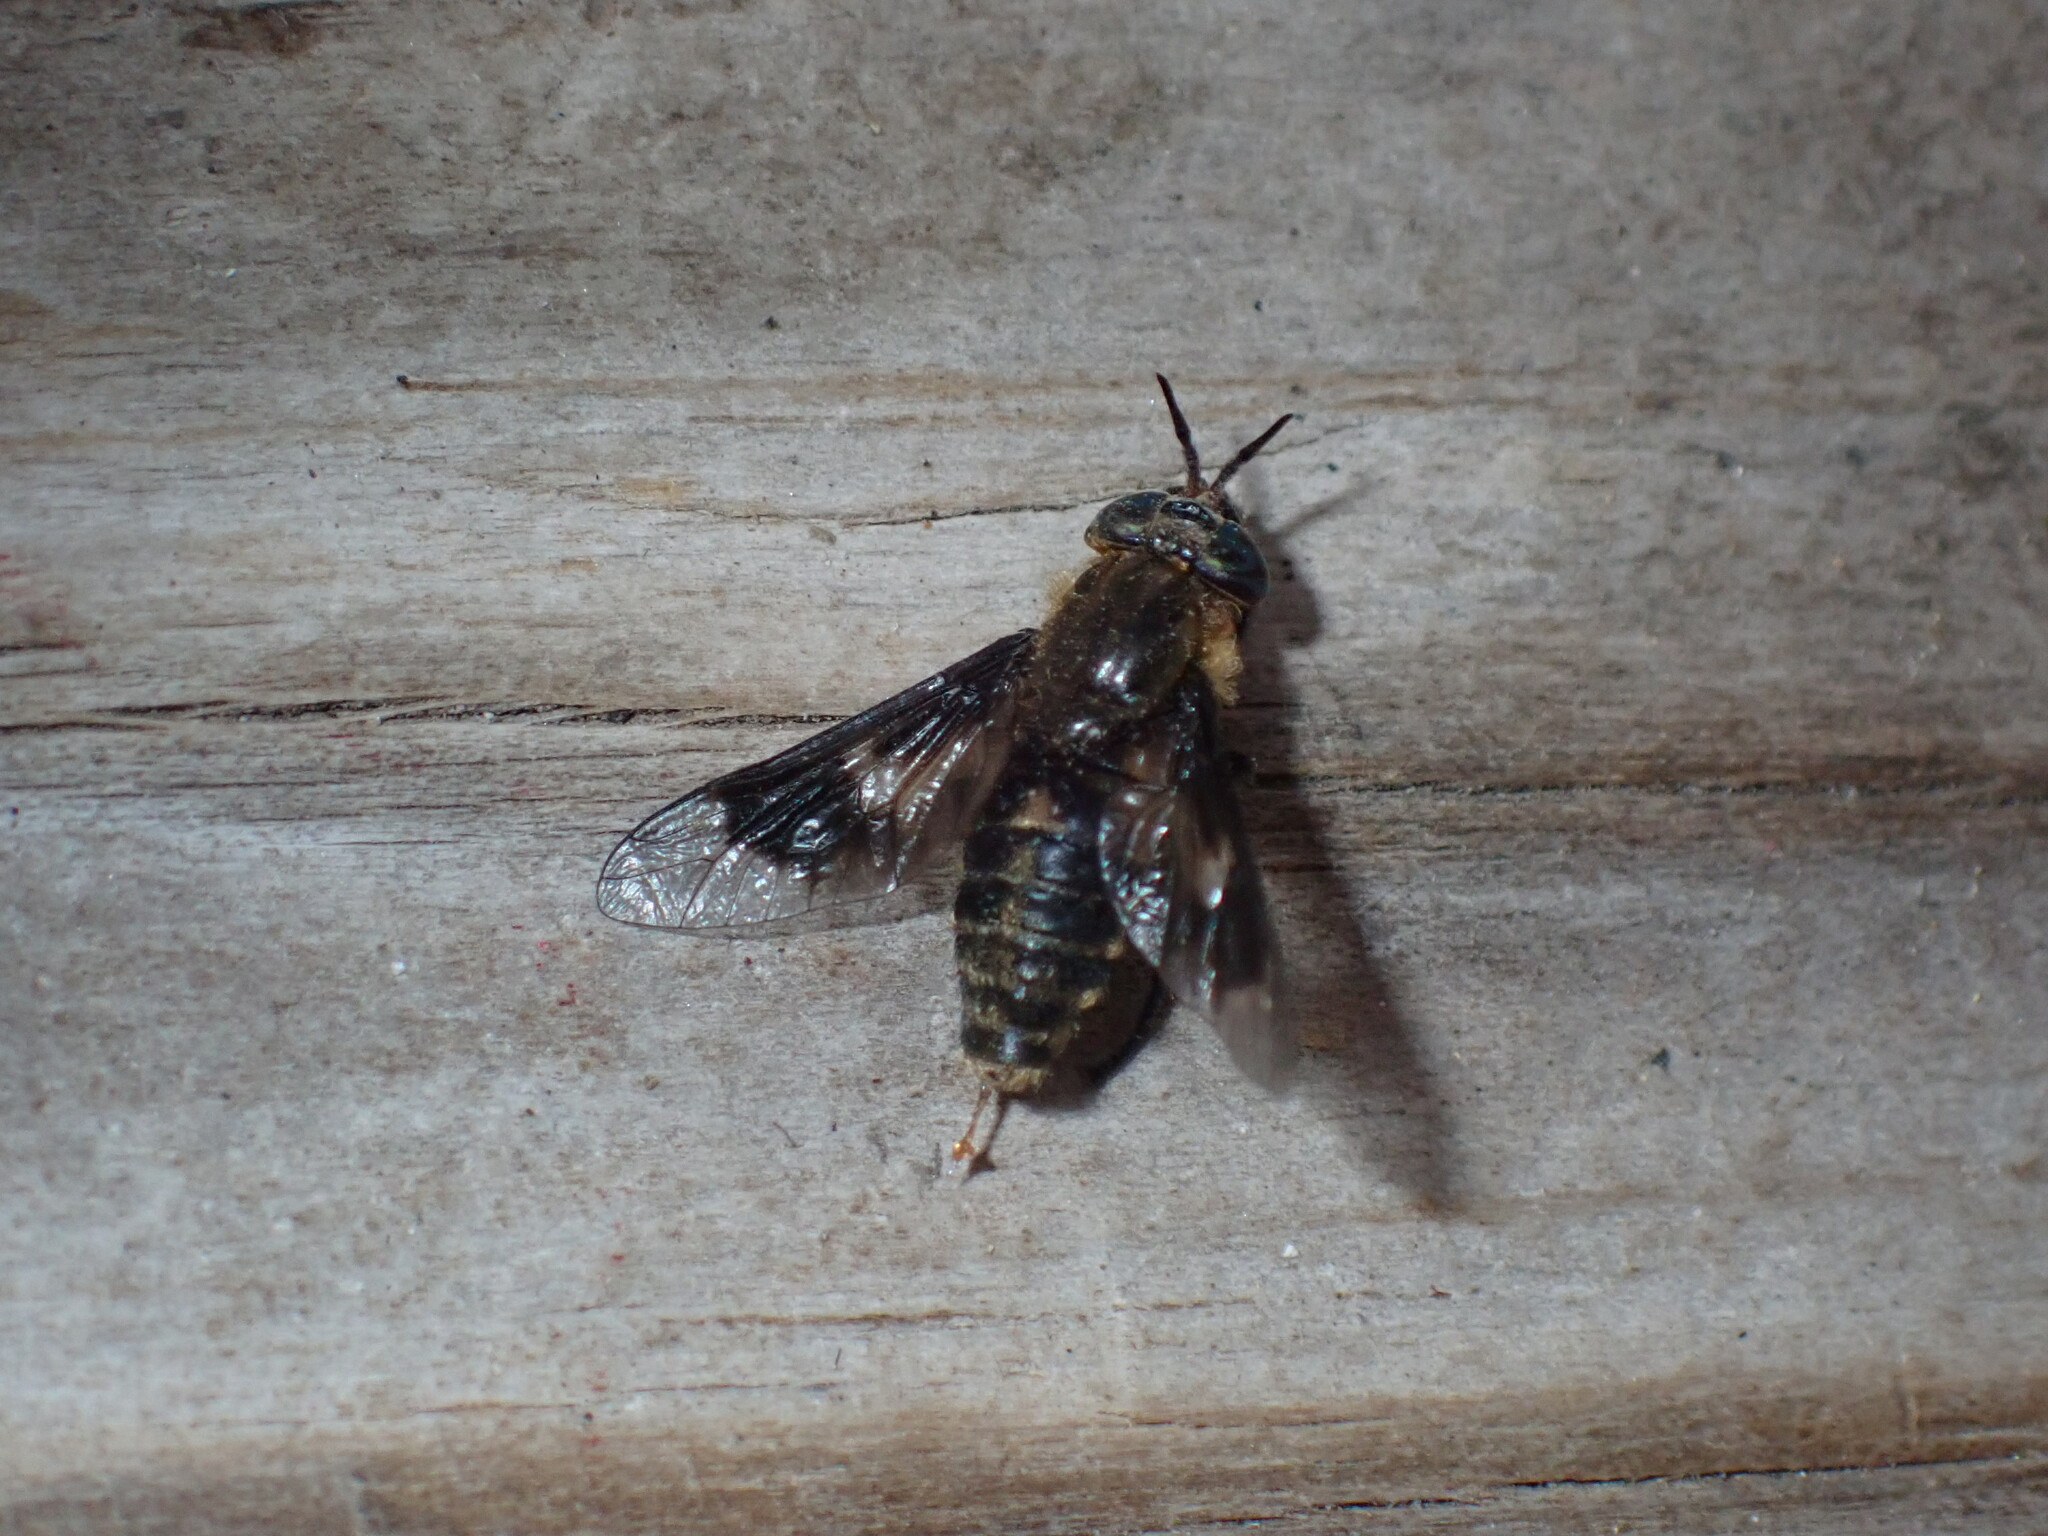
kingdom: Animalia
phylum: Arthropoda
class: Insecta
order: Diptera
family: Tabanidae
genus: Chrysops
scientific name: Chrysops excitans
